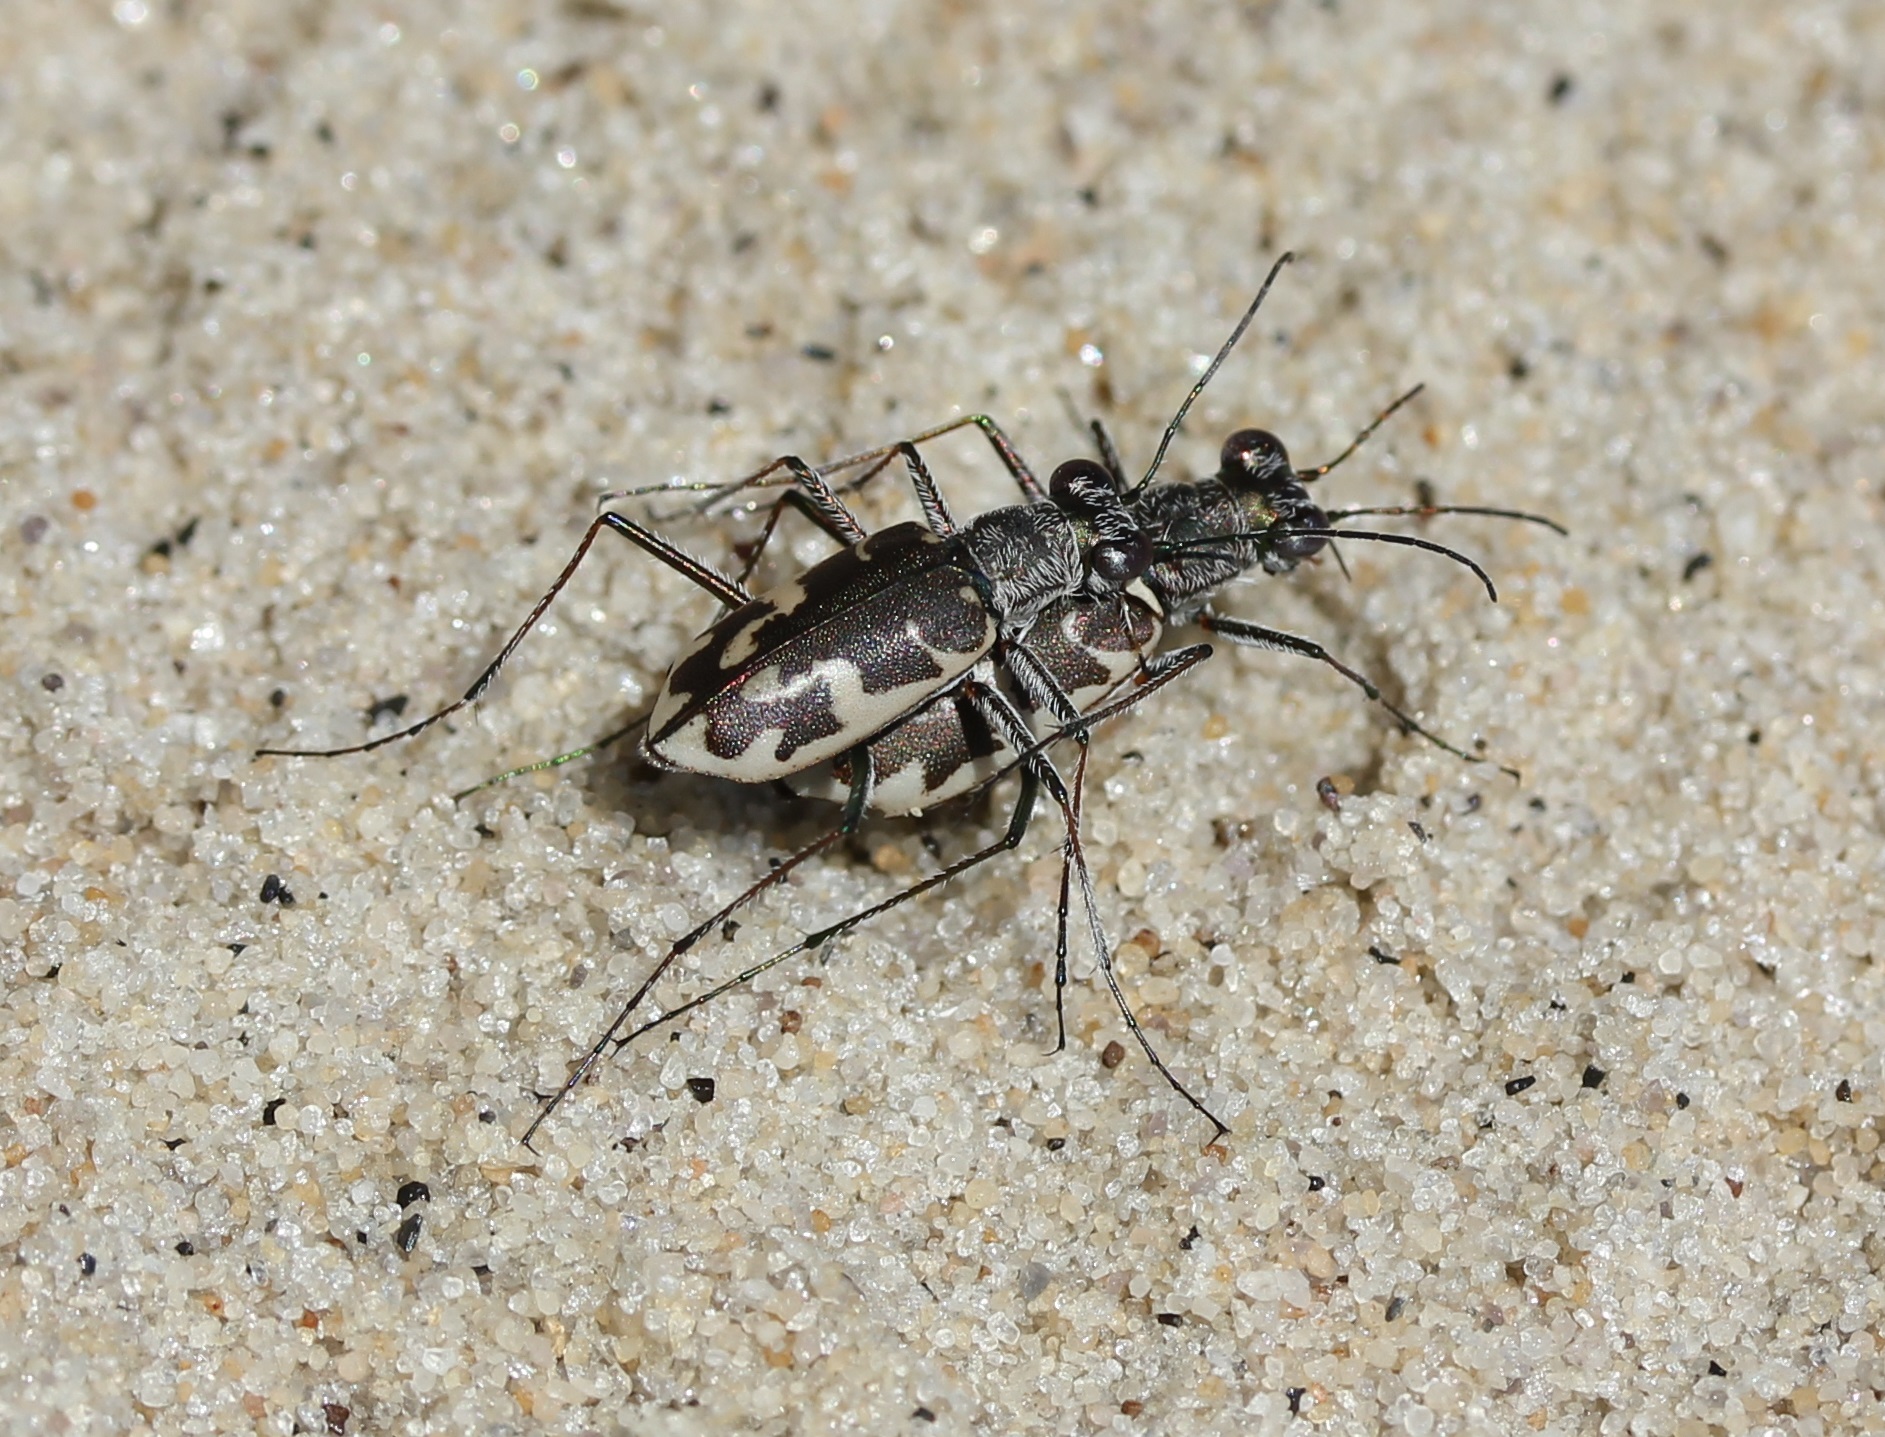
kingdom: Animalia
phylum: Arthropoda
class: Insecta
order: Coleoptera
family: Carabidae
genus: Ellipsoptera
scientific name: Ellipsoptera puritana
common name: Puritan tiger beetle
